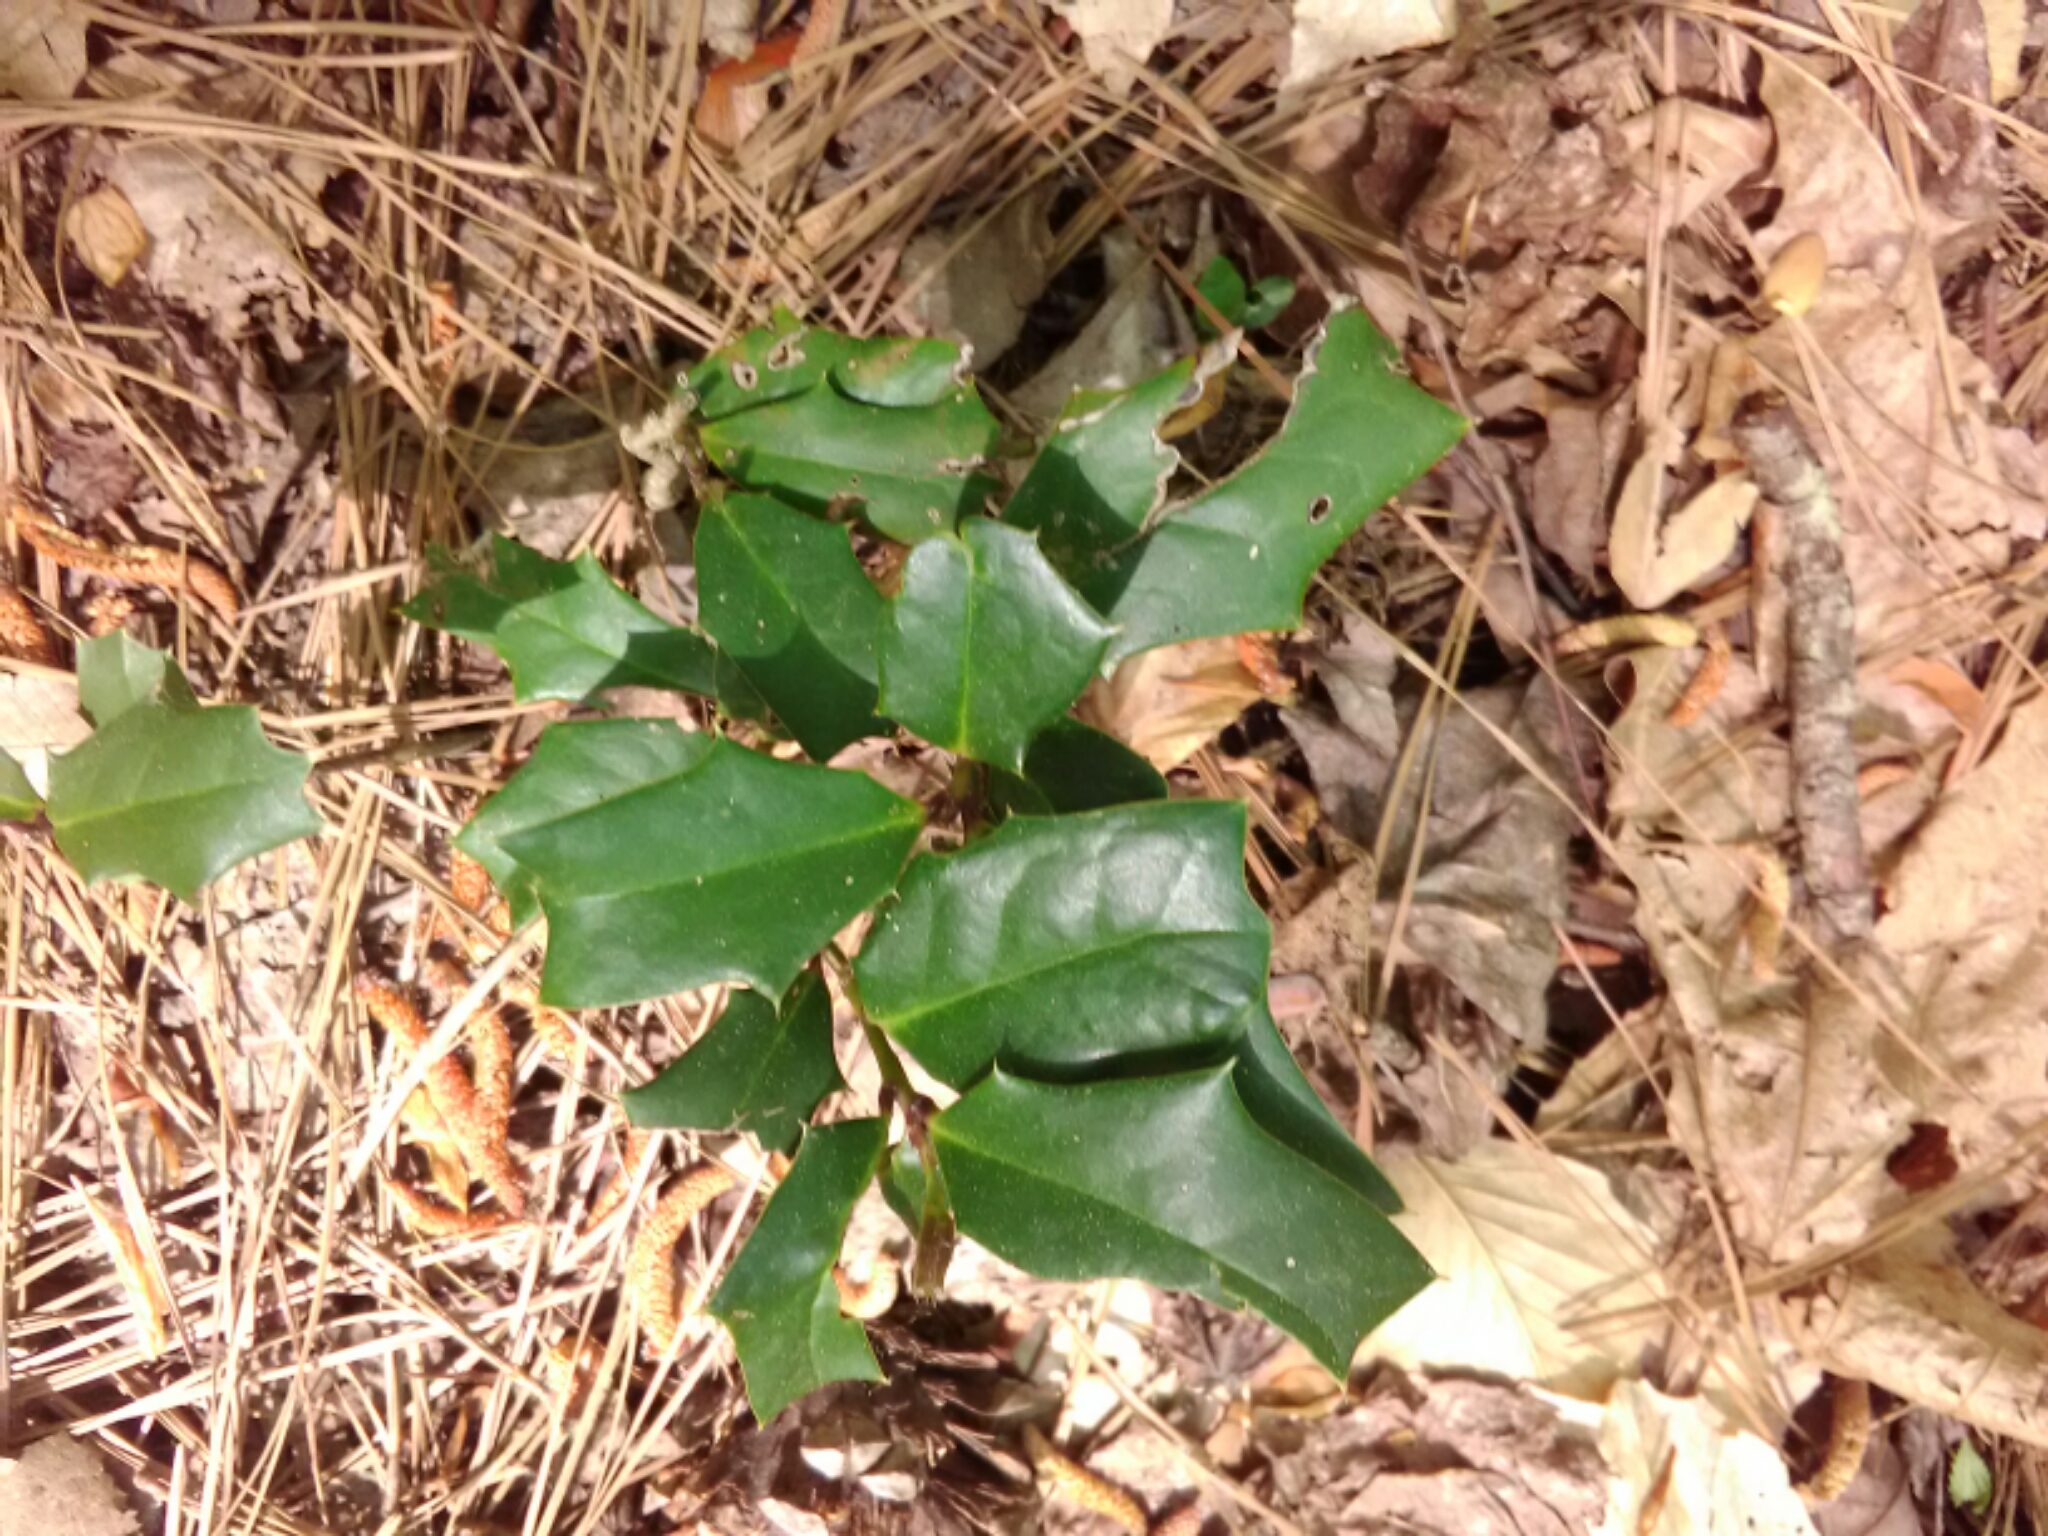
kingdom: Plantae
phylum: Tracheophyta
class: Magnoliopsida
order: Aquifoliales
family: Aquifoliaceae
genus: Ilex
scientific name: Ilex opaca
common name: American holly
